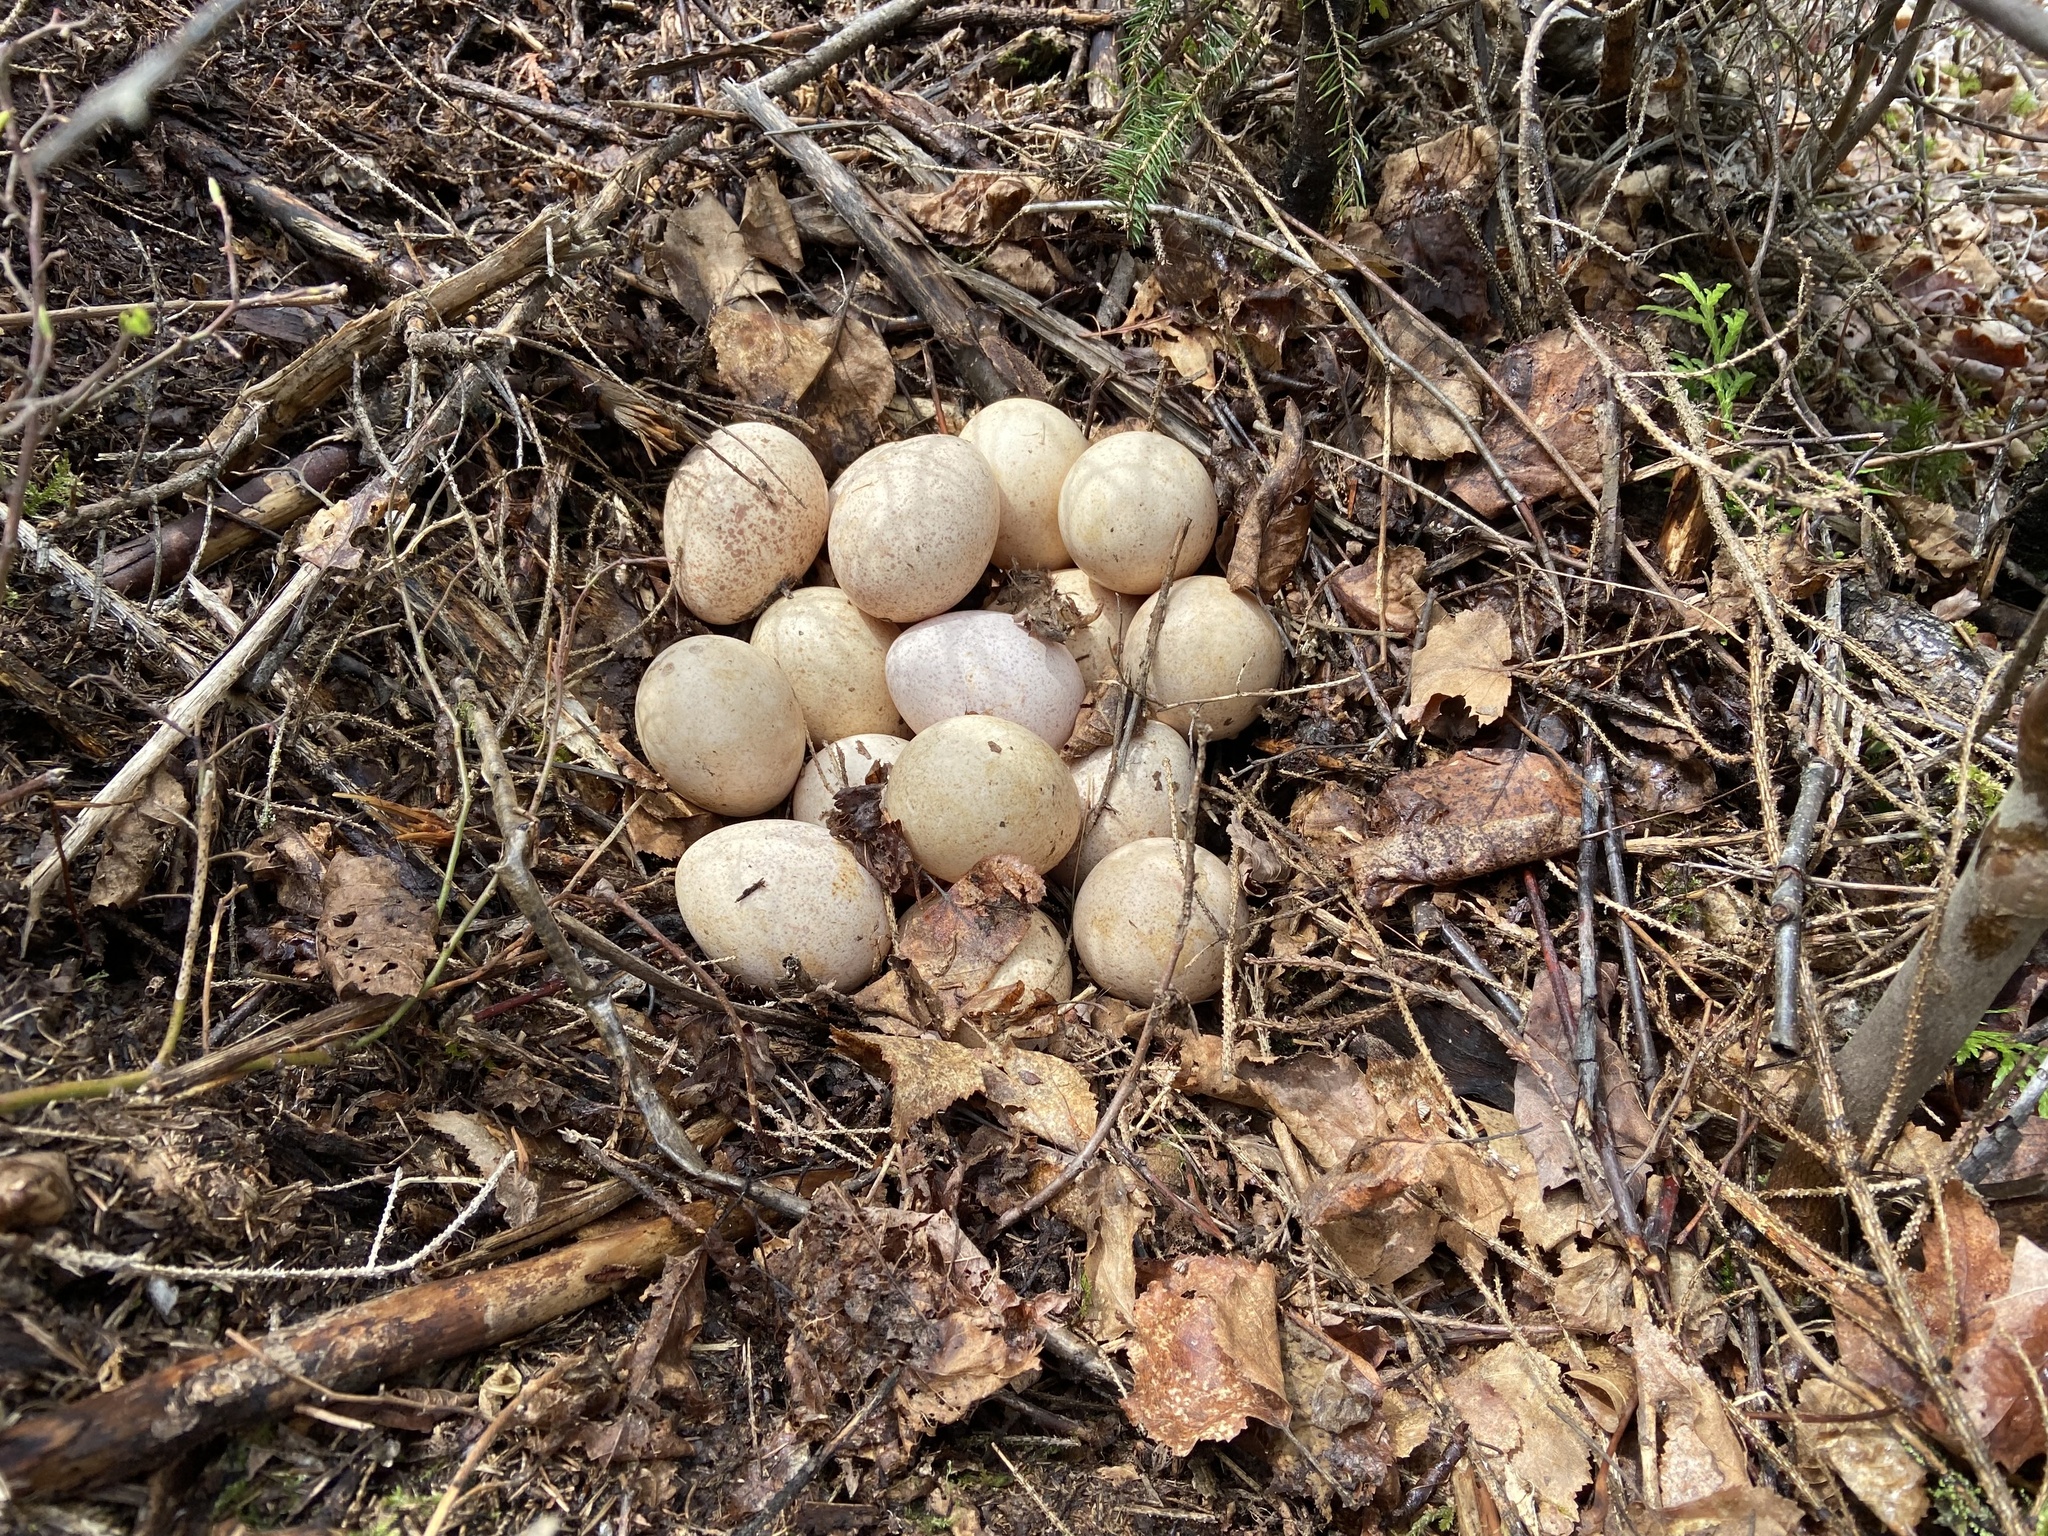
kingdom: Animalia
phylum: Chordata
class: Aves
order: Galliformes
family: Phasianidae
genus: Meleagris
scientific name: Meleagris gallopavo
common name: Wild turkey
